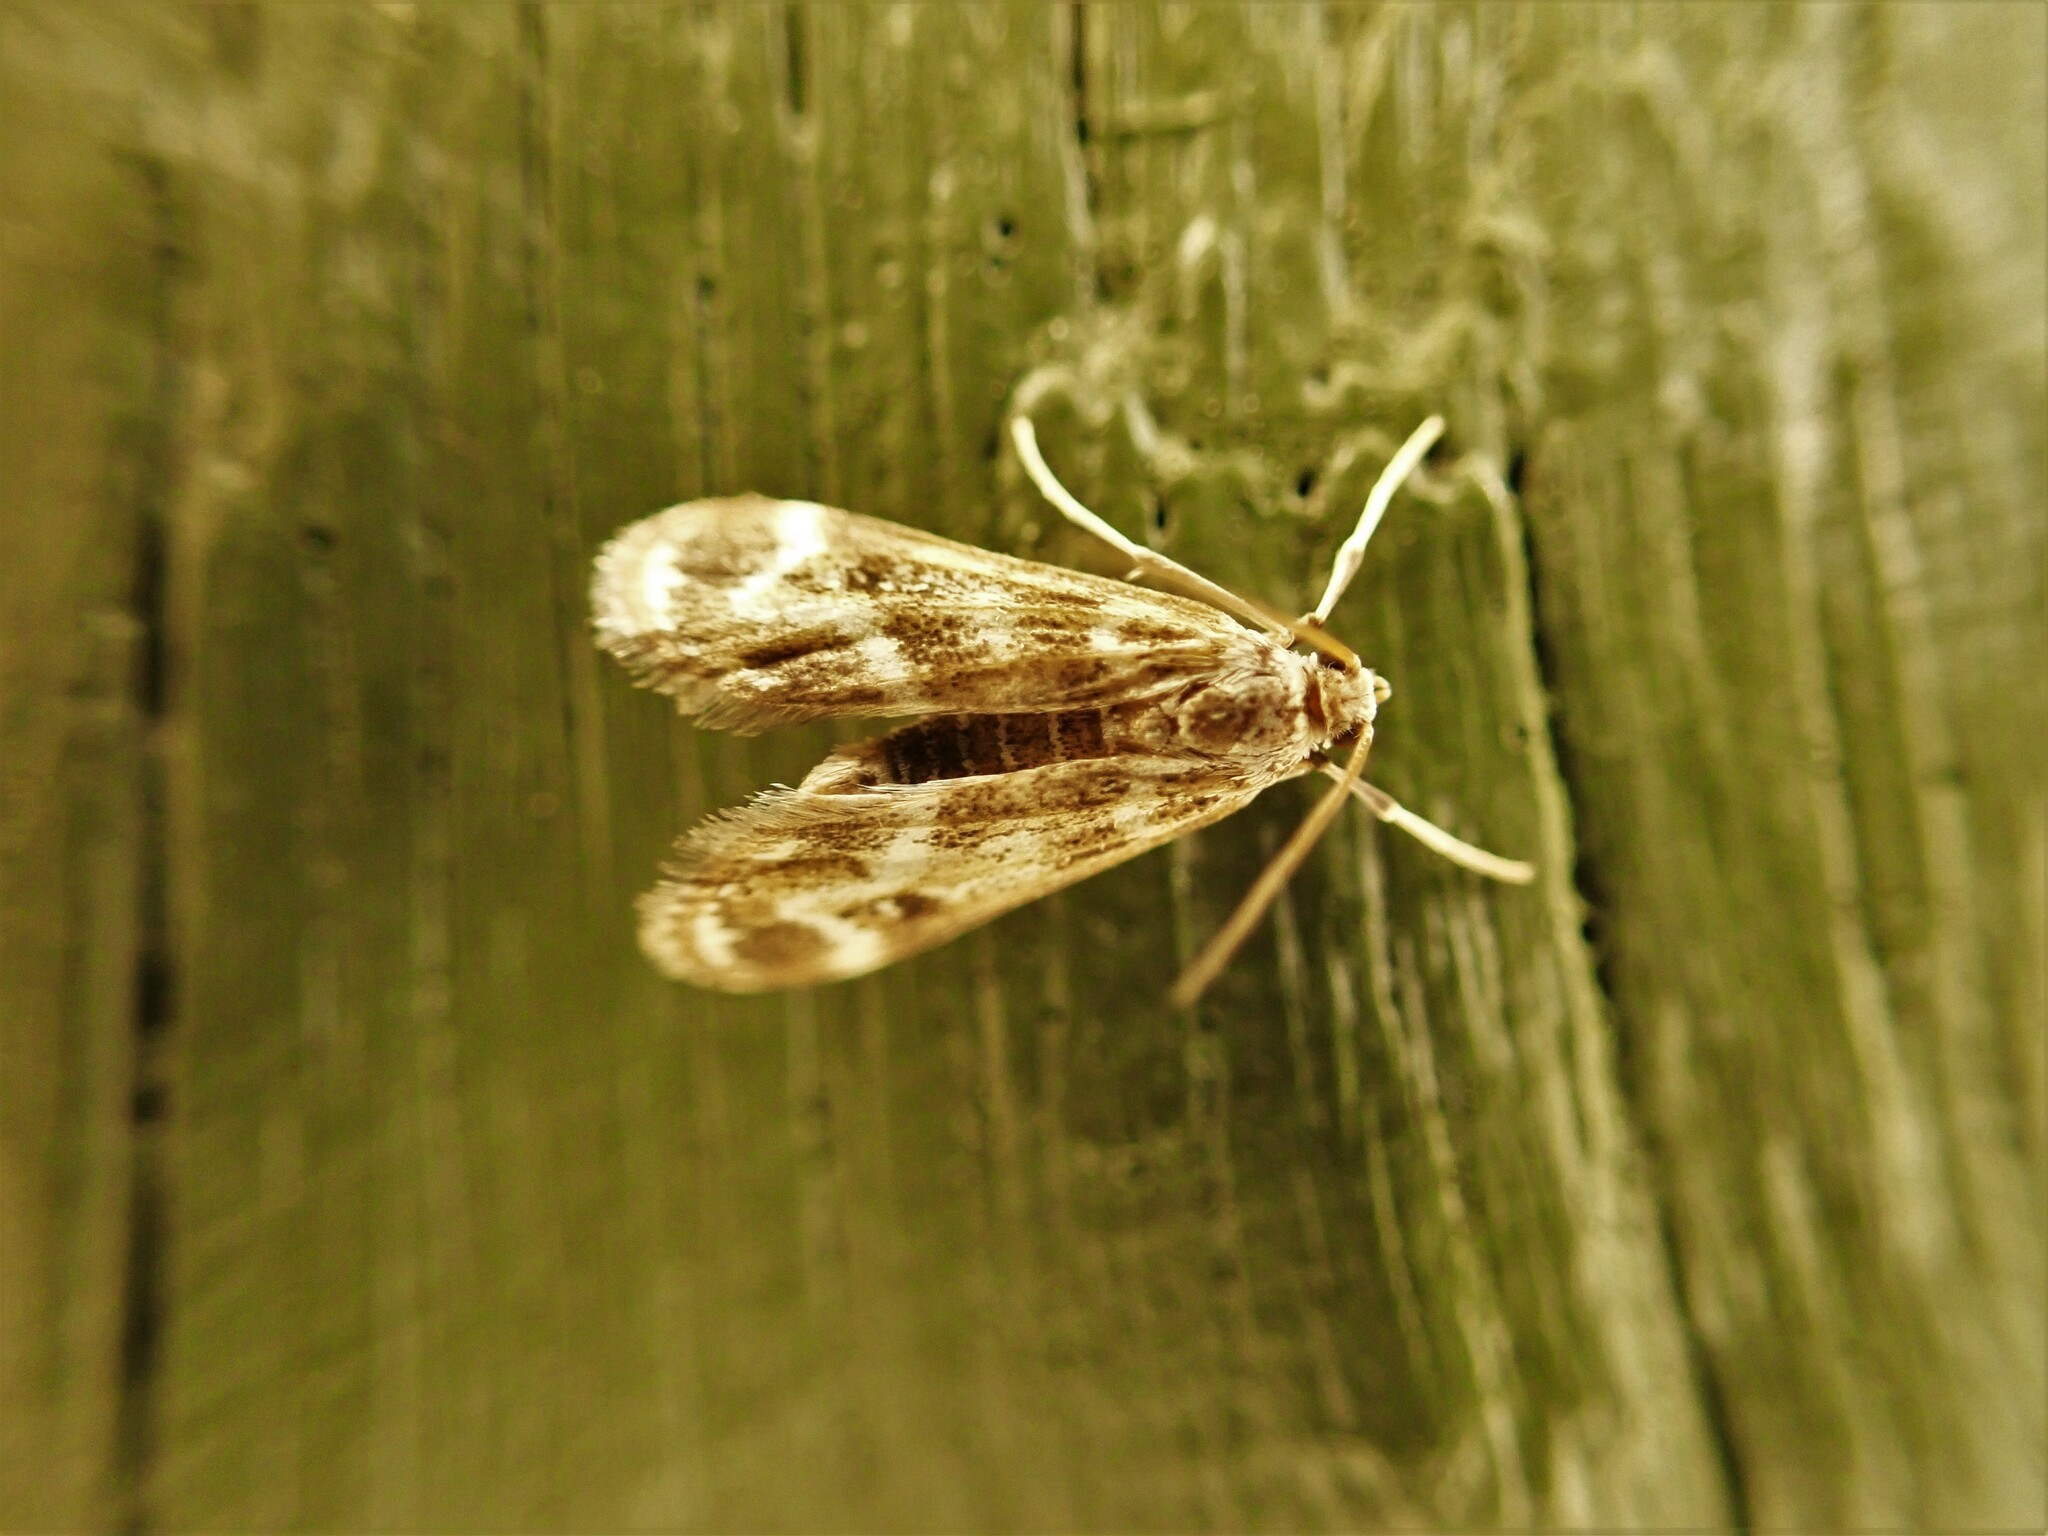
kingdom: Animalia
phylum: Arthropoda
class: Insecta
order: Lepidoptera
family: Crambidae
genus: Hygraula
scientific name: Hygraula nitens
